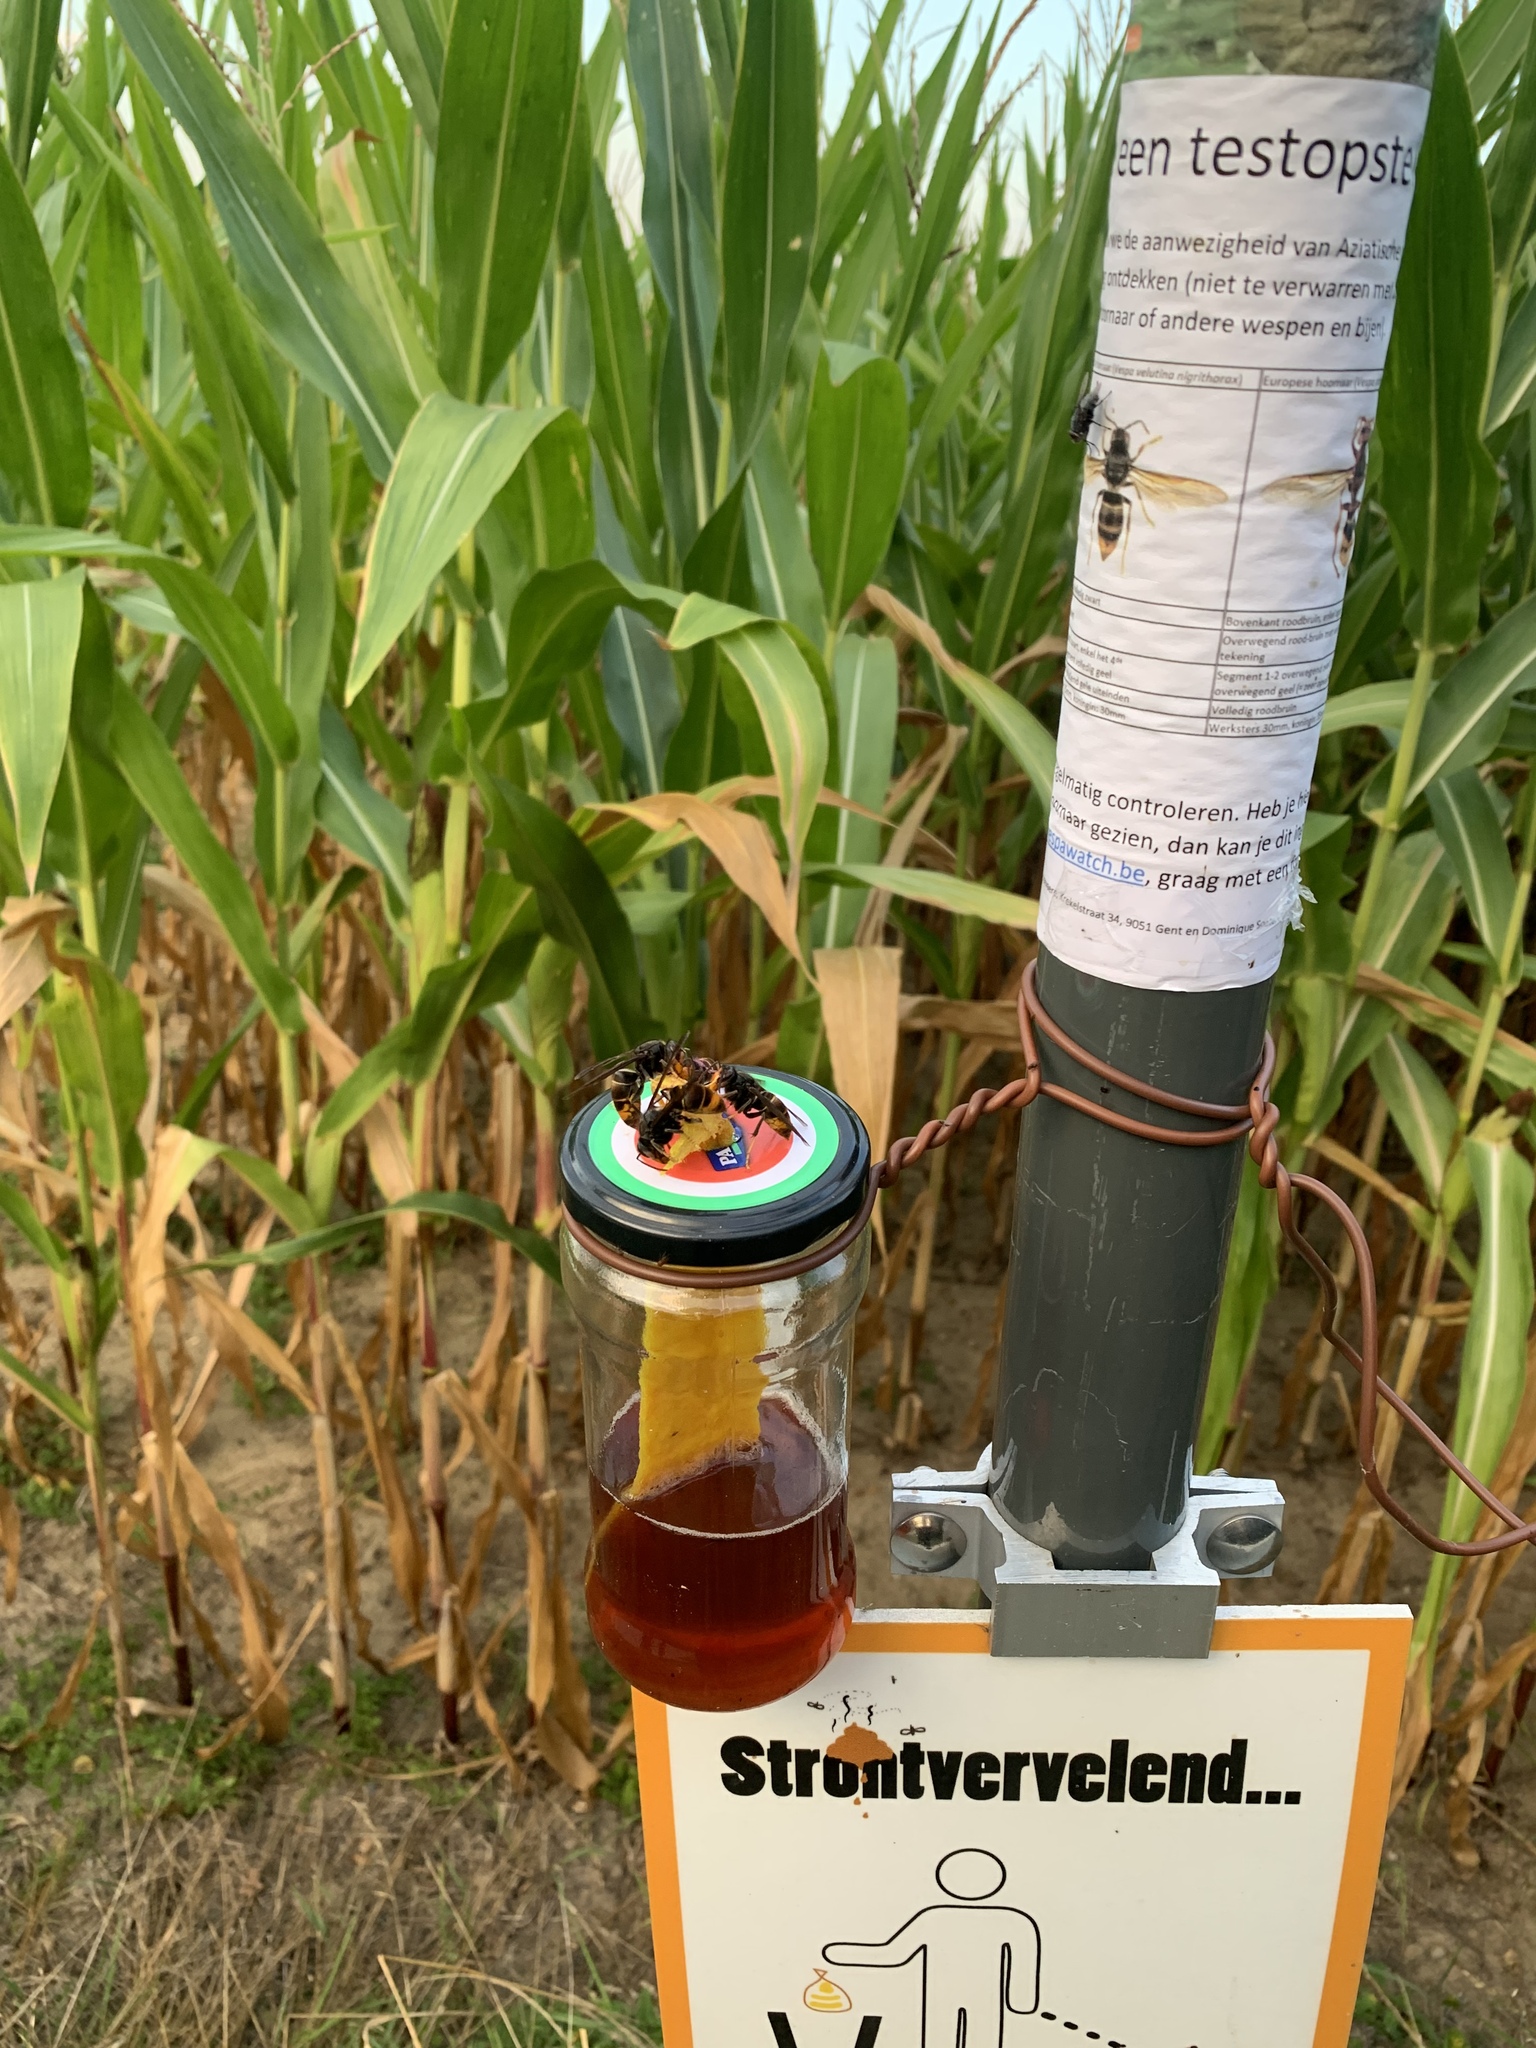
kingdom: Animalia
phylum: Arthropoda
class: Insecta
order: Hymenoptera
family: Vespidae
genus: Vespa
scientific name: Vespa velutina
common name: Asian hornet
